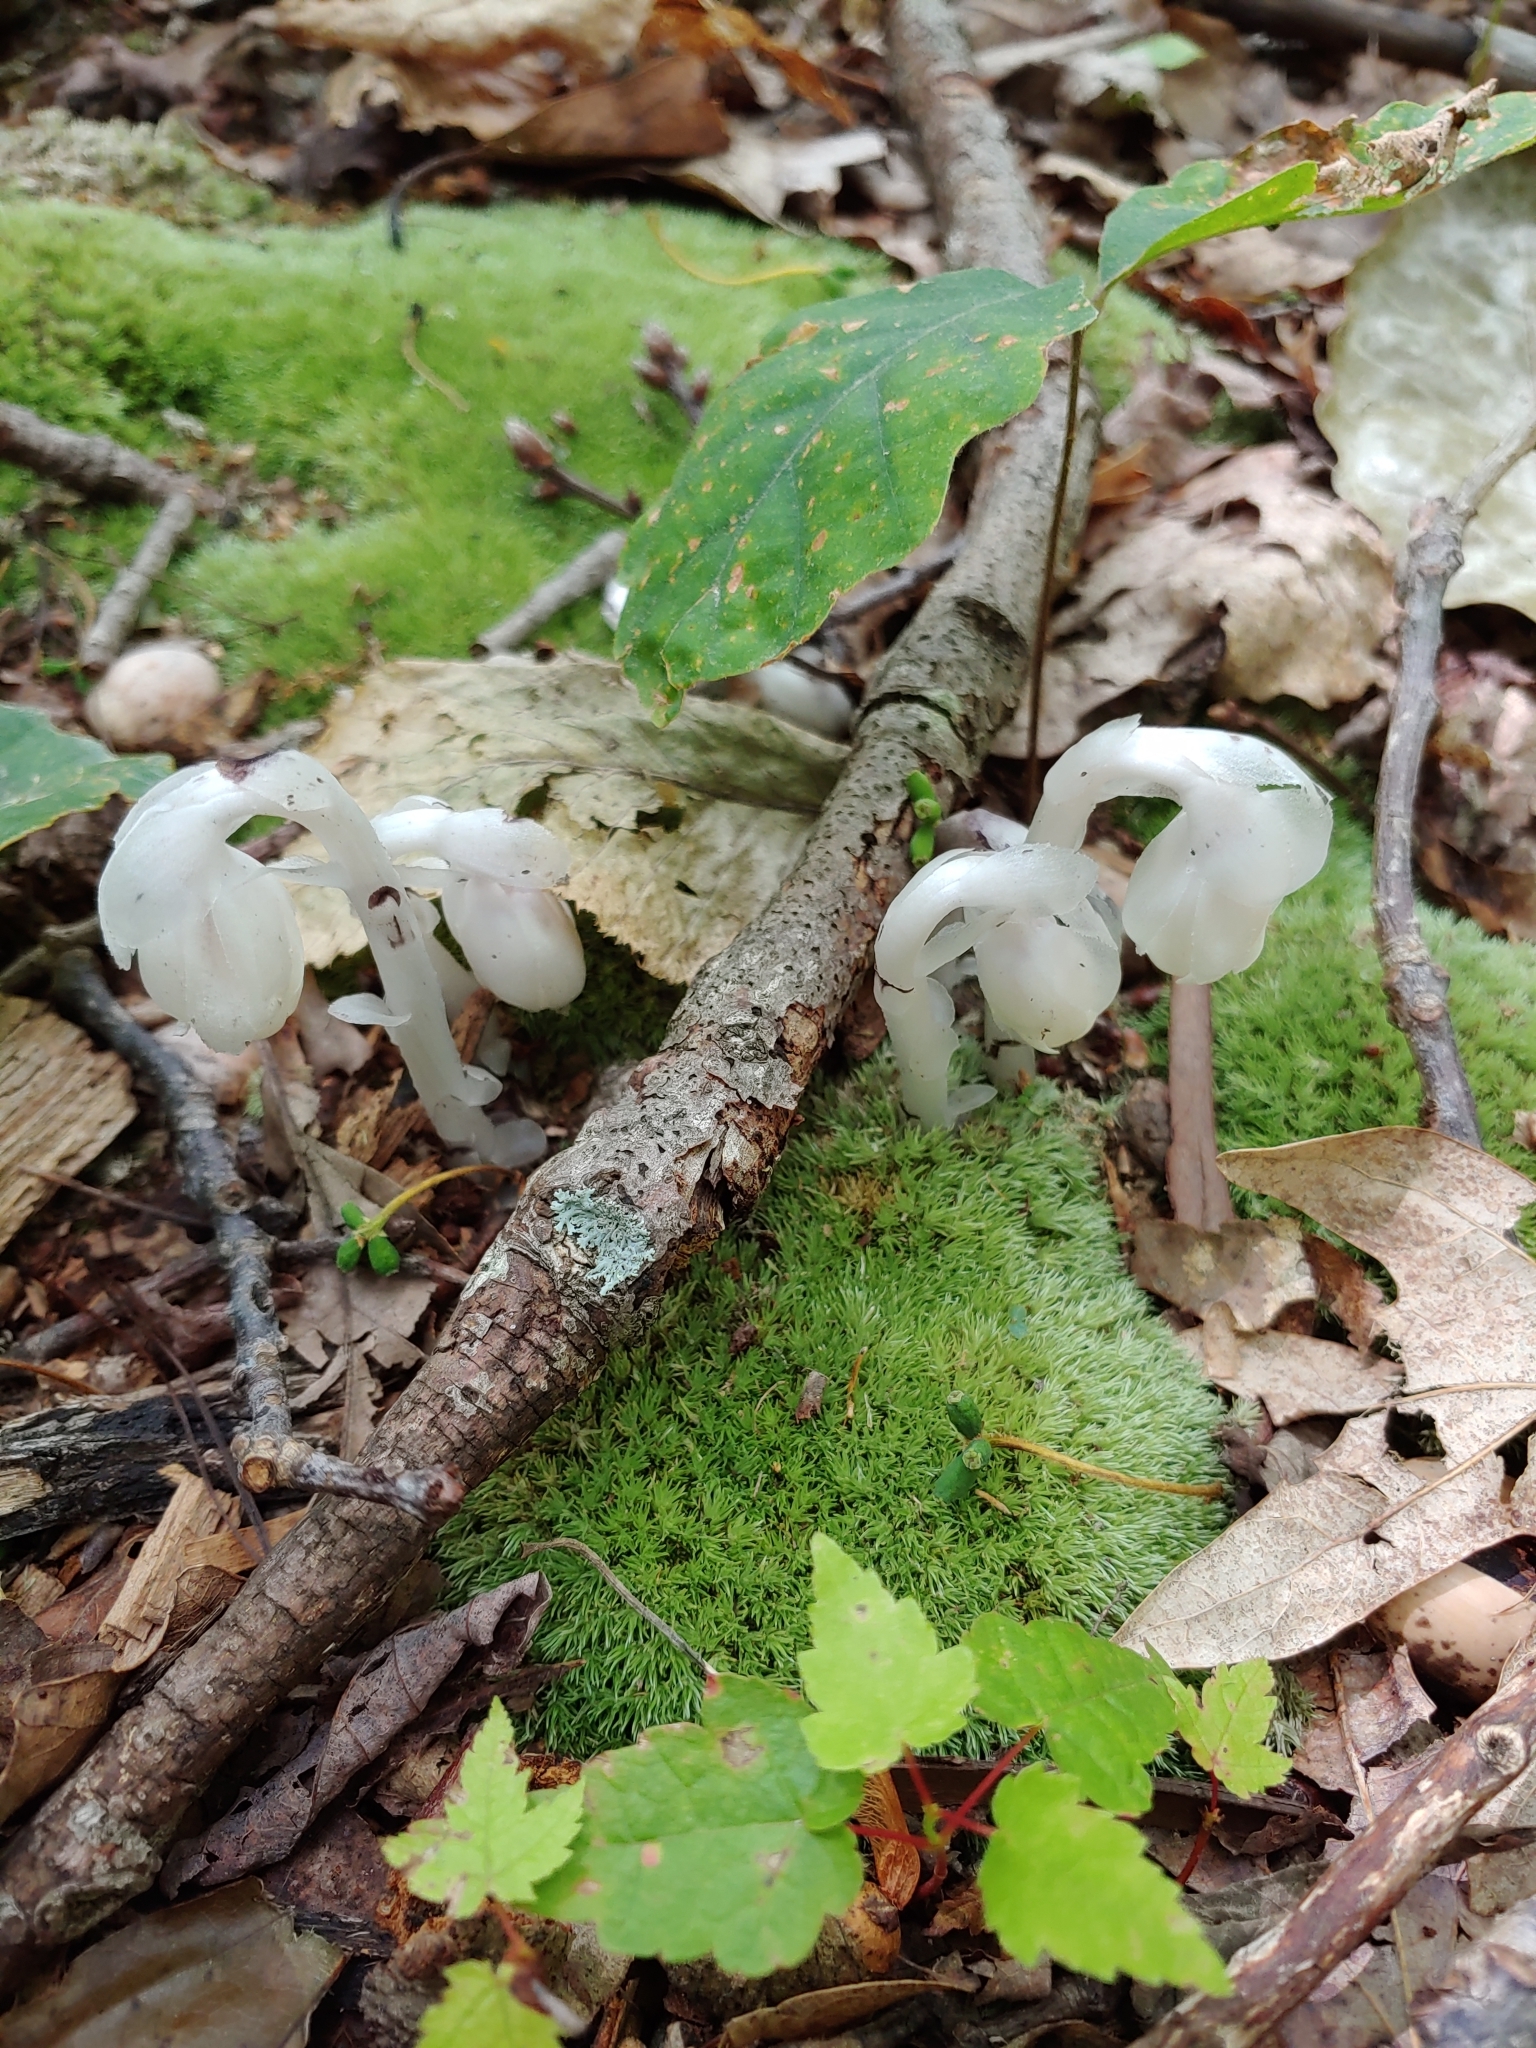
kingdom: Plantae
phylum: Tracheophyta
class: Magnoliopsida
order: Ericales
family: Ericaceae
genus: Monotropa
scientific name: Monotropa uniflora
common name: Convulsion root
